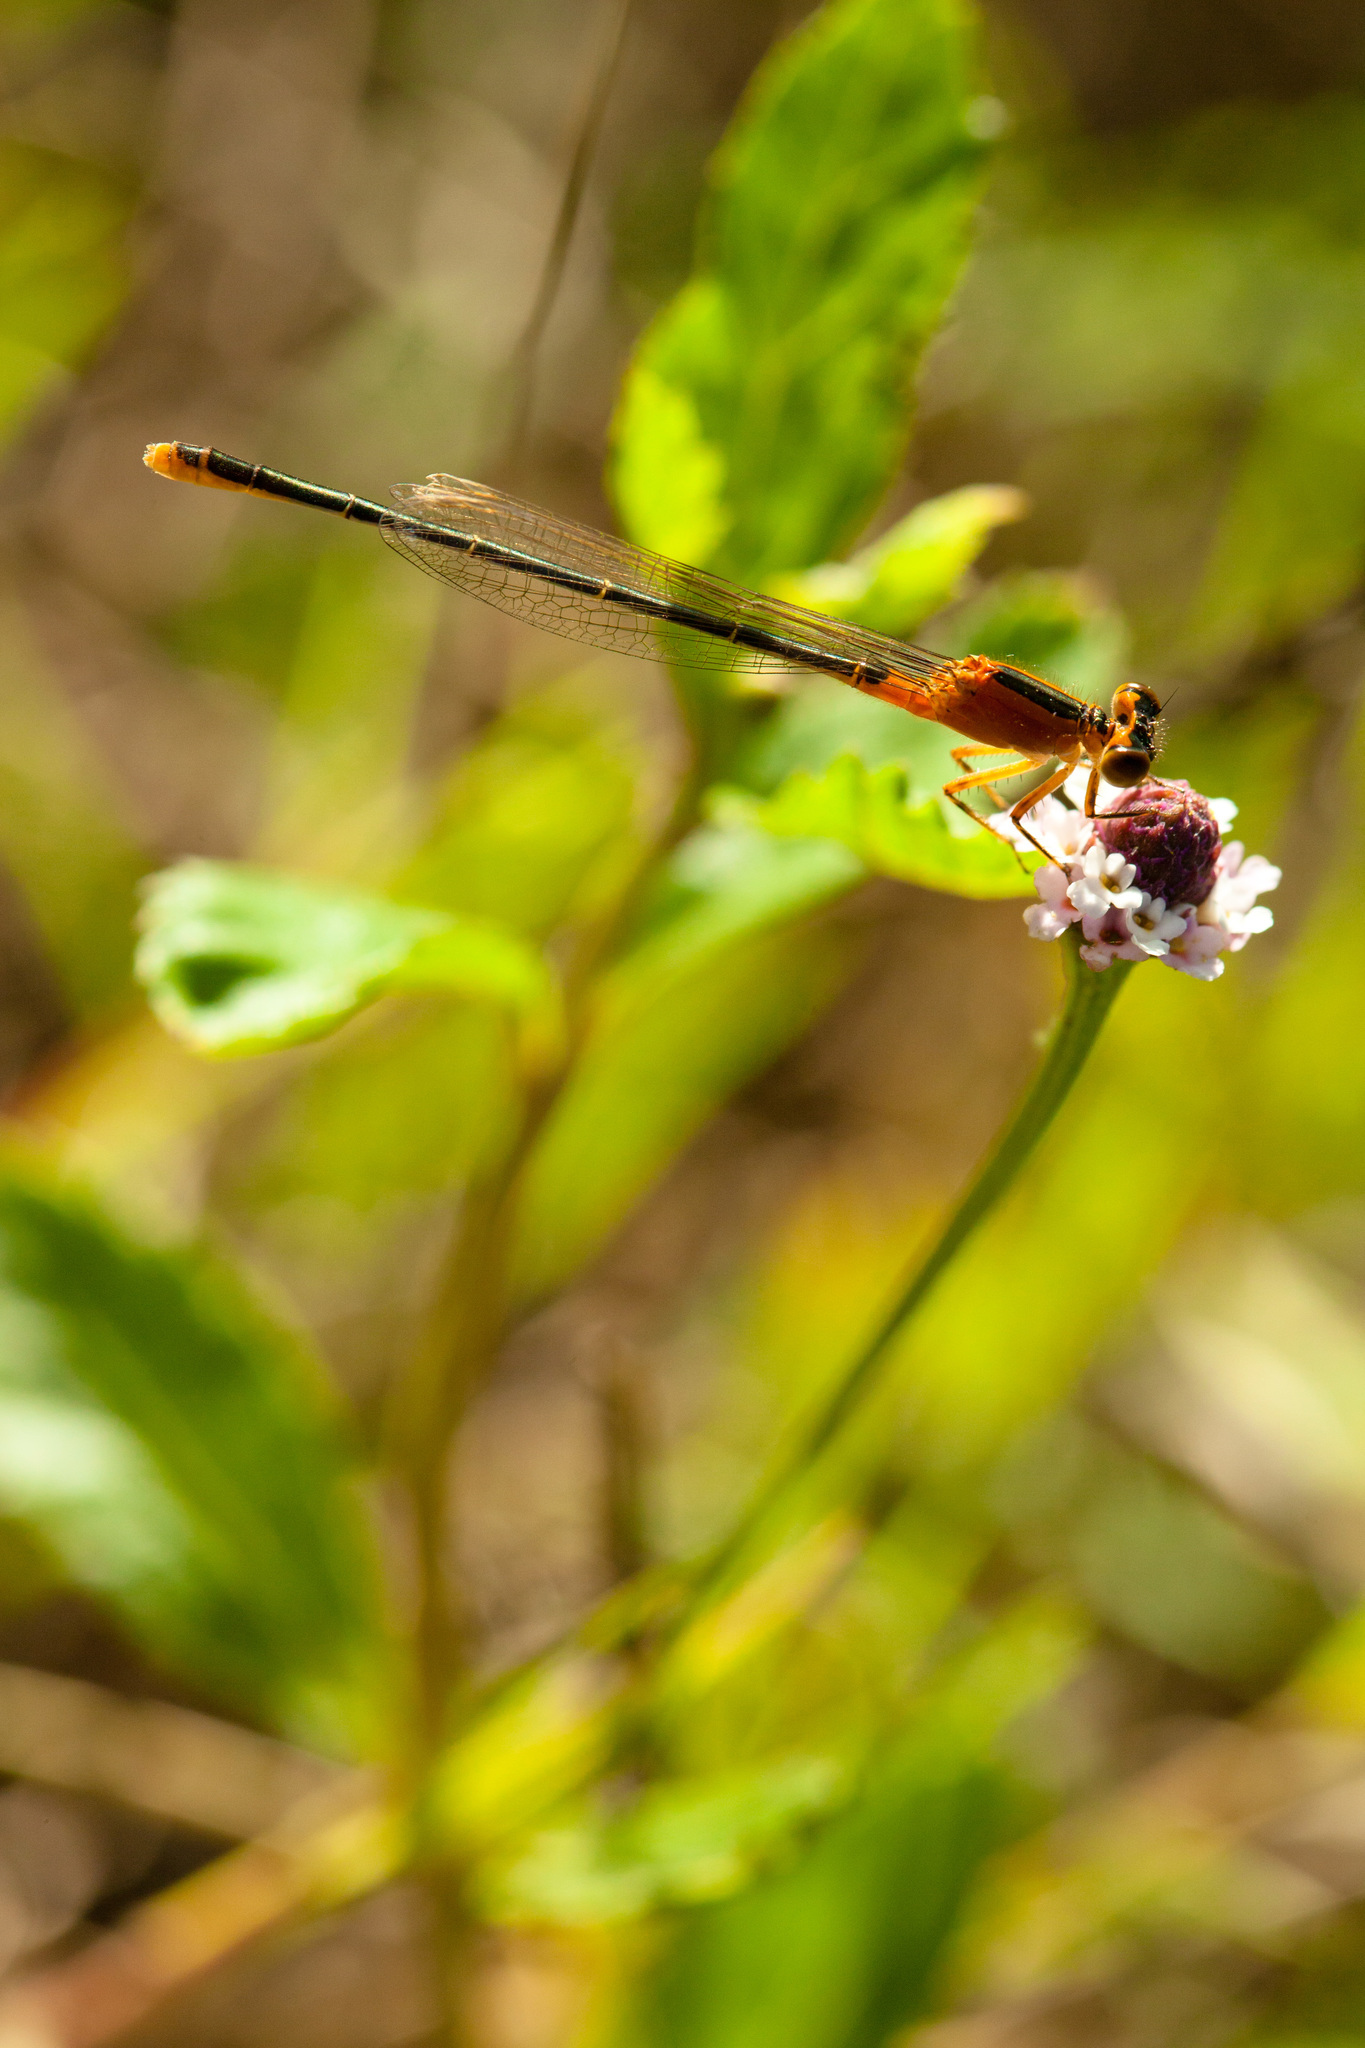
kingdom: Animalia
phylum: Arthropoda
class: Insecta
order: Odonata
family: Coenagrionidae
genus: Ischnura
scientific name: Ischnura ramburii
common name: Rambur's forktail
